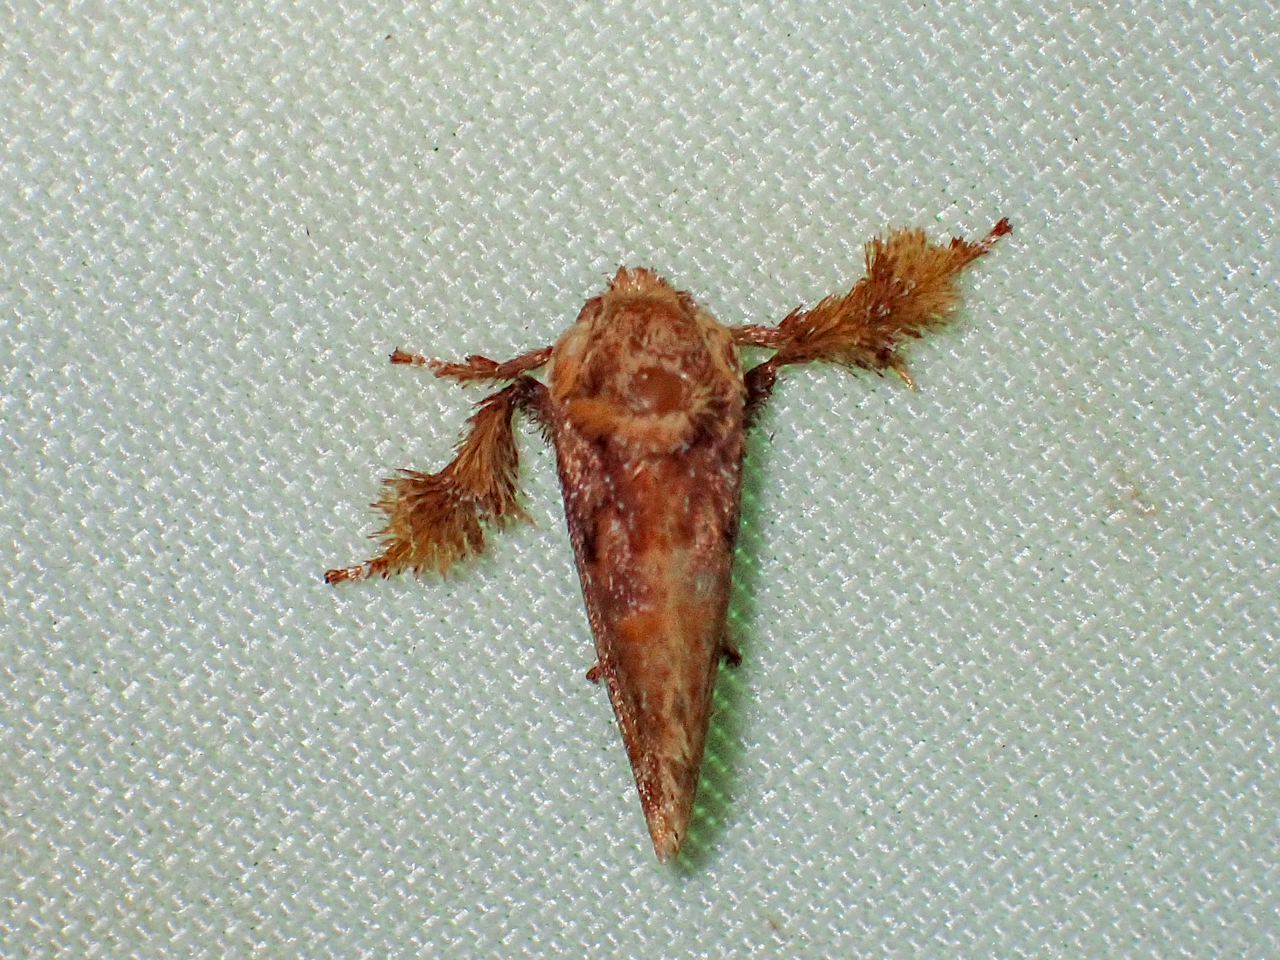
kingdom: Animalia
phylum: Arthropoda
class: Insecta
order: Lepidoptera
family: Limacodidae
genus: Isochaetes
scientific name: Isochaetes beutenmuelleri
